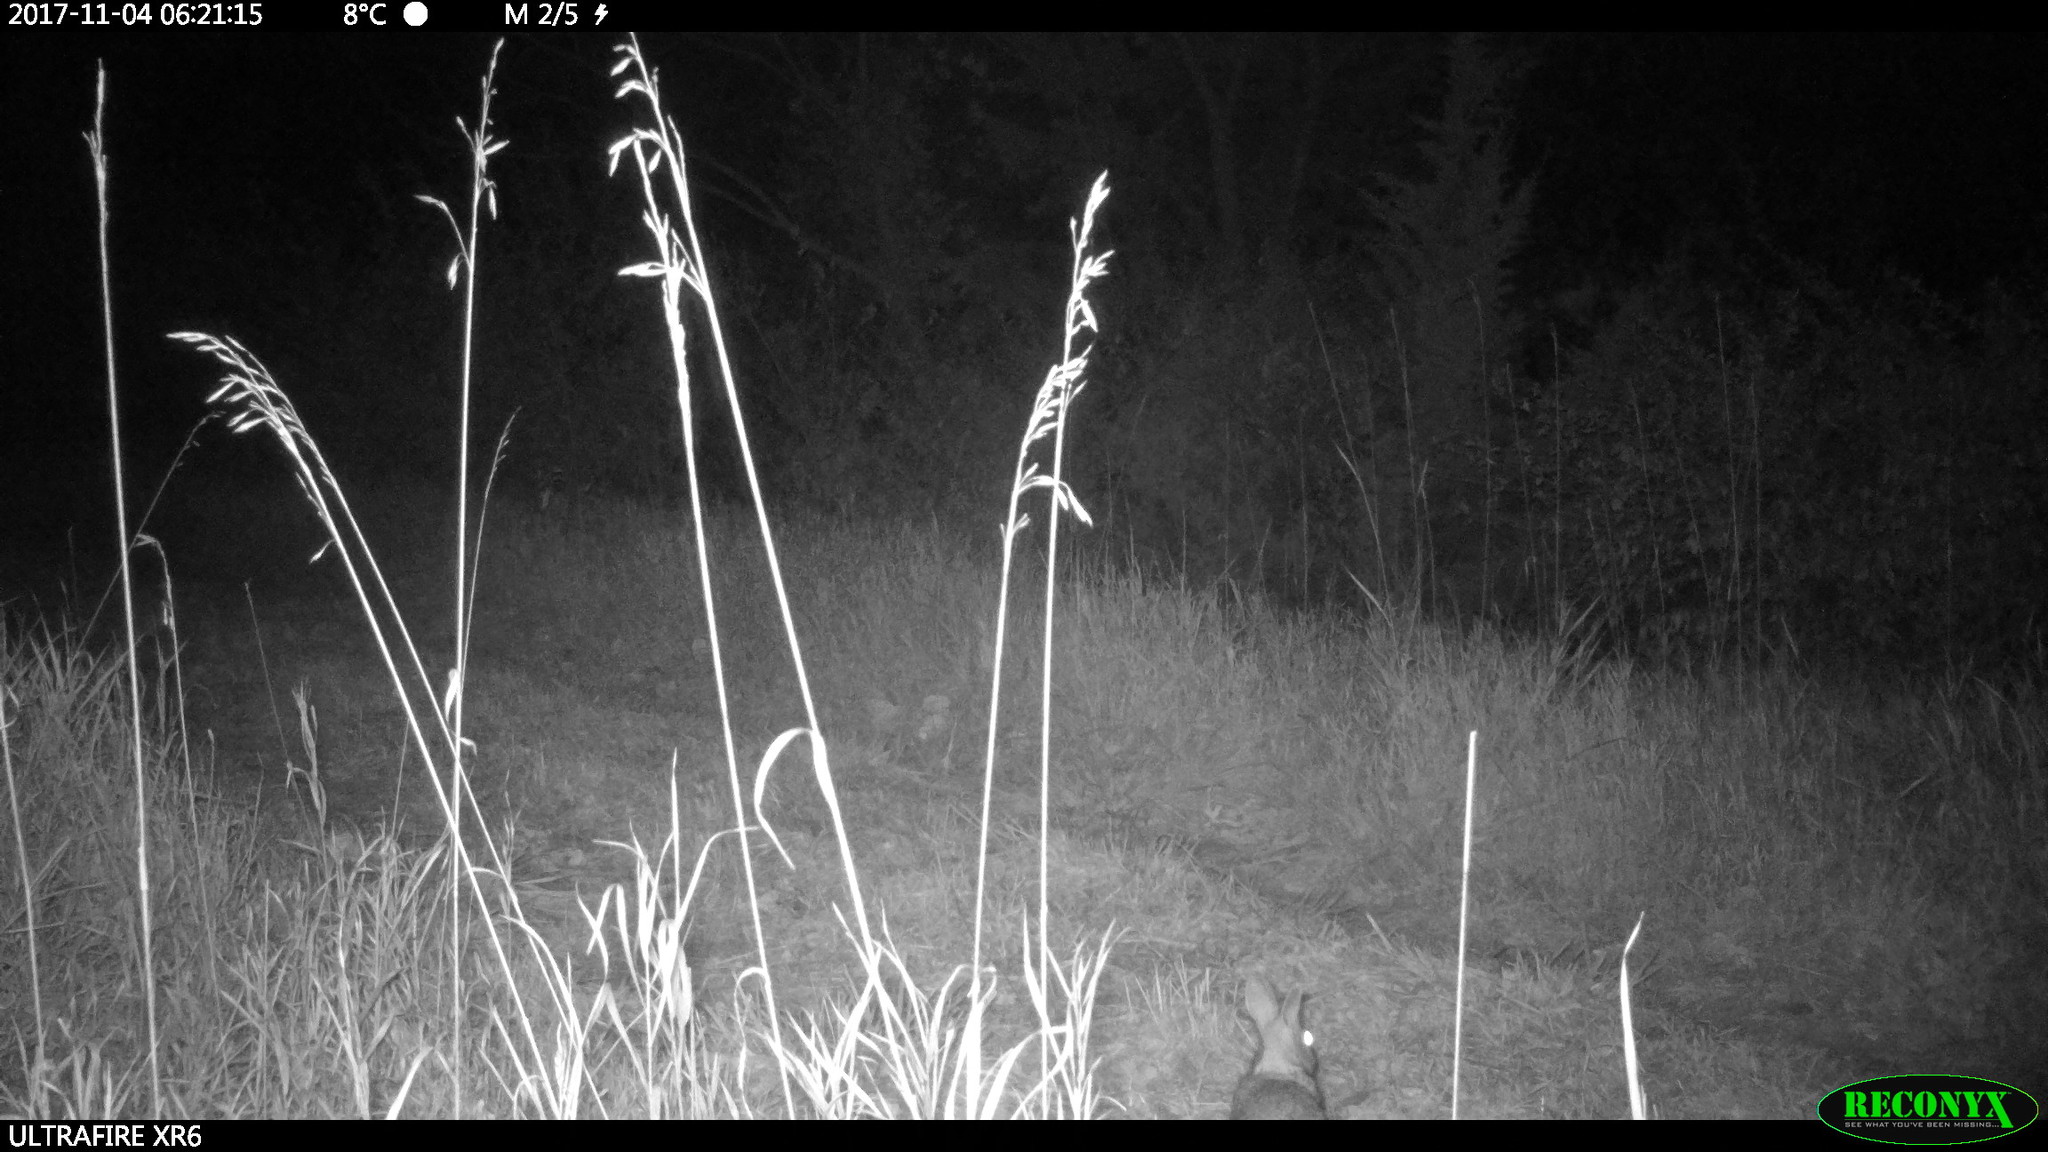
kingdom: Animalia
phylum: Chordata
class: Mammalia
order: Lagomorpha
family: Leporidae
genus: Sylvilagus
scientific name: Sylvilagus floridanus
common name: Eastern cottontail
